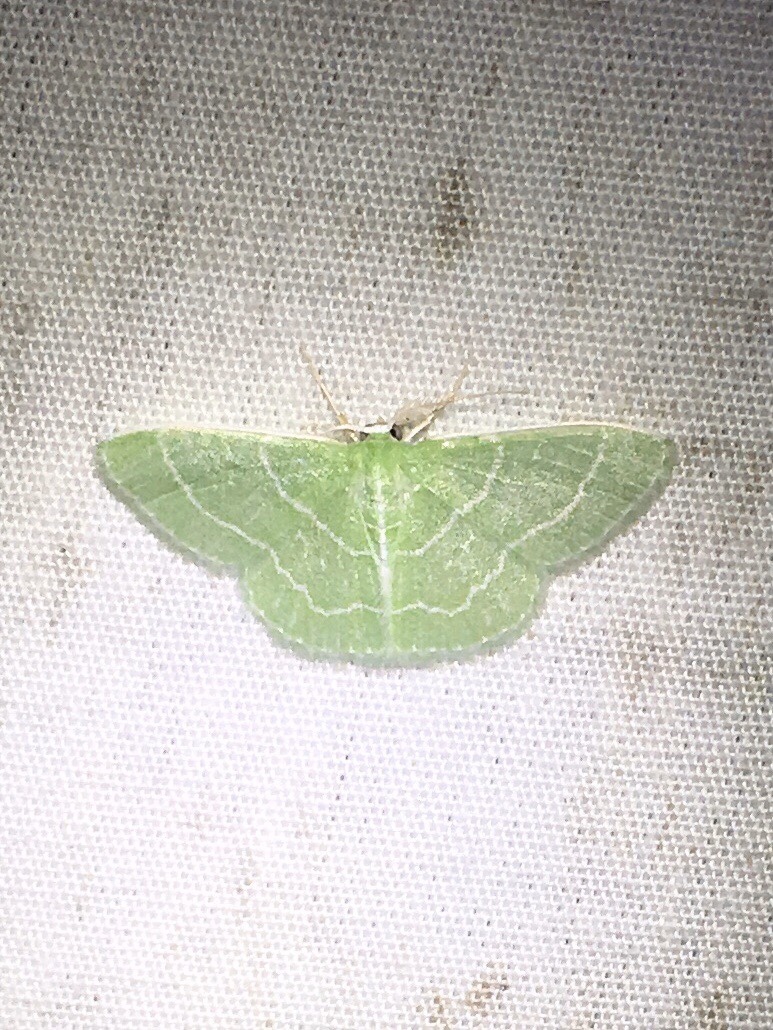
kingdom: Animalia
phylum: Arthropoda
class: Insecta
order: Lepidoptera
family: Geometridae
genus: Synchlora
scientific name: Synchlora aerata
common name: Wavy-lined emerald
